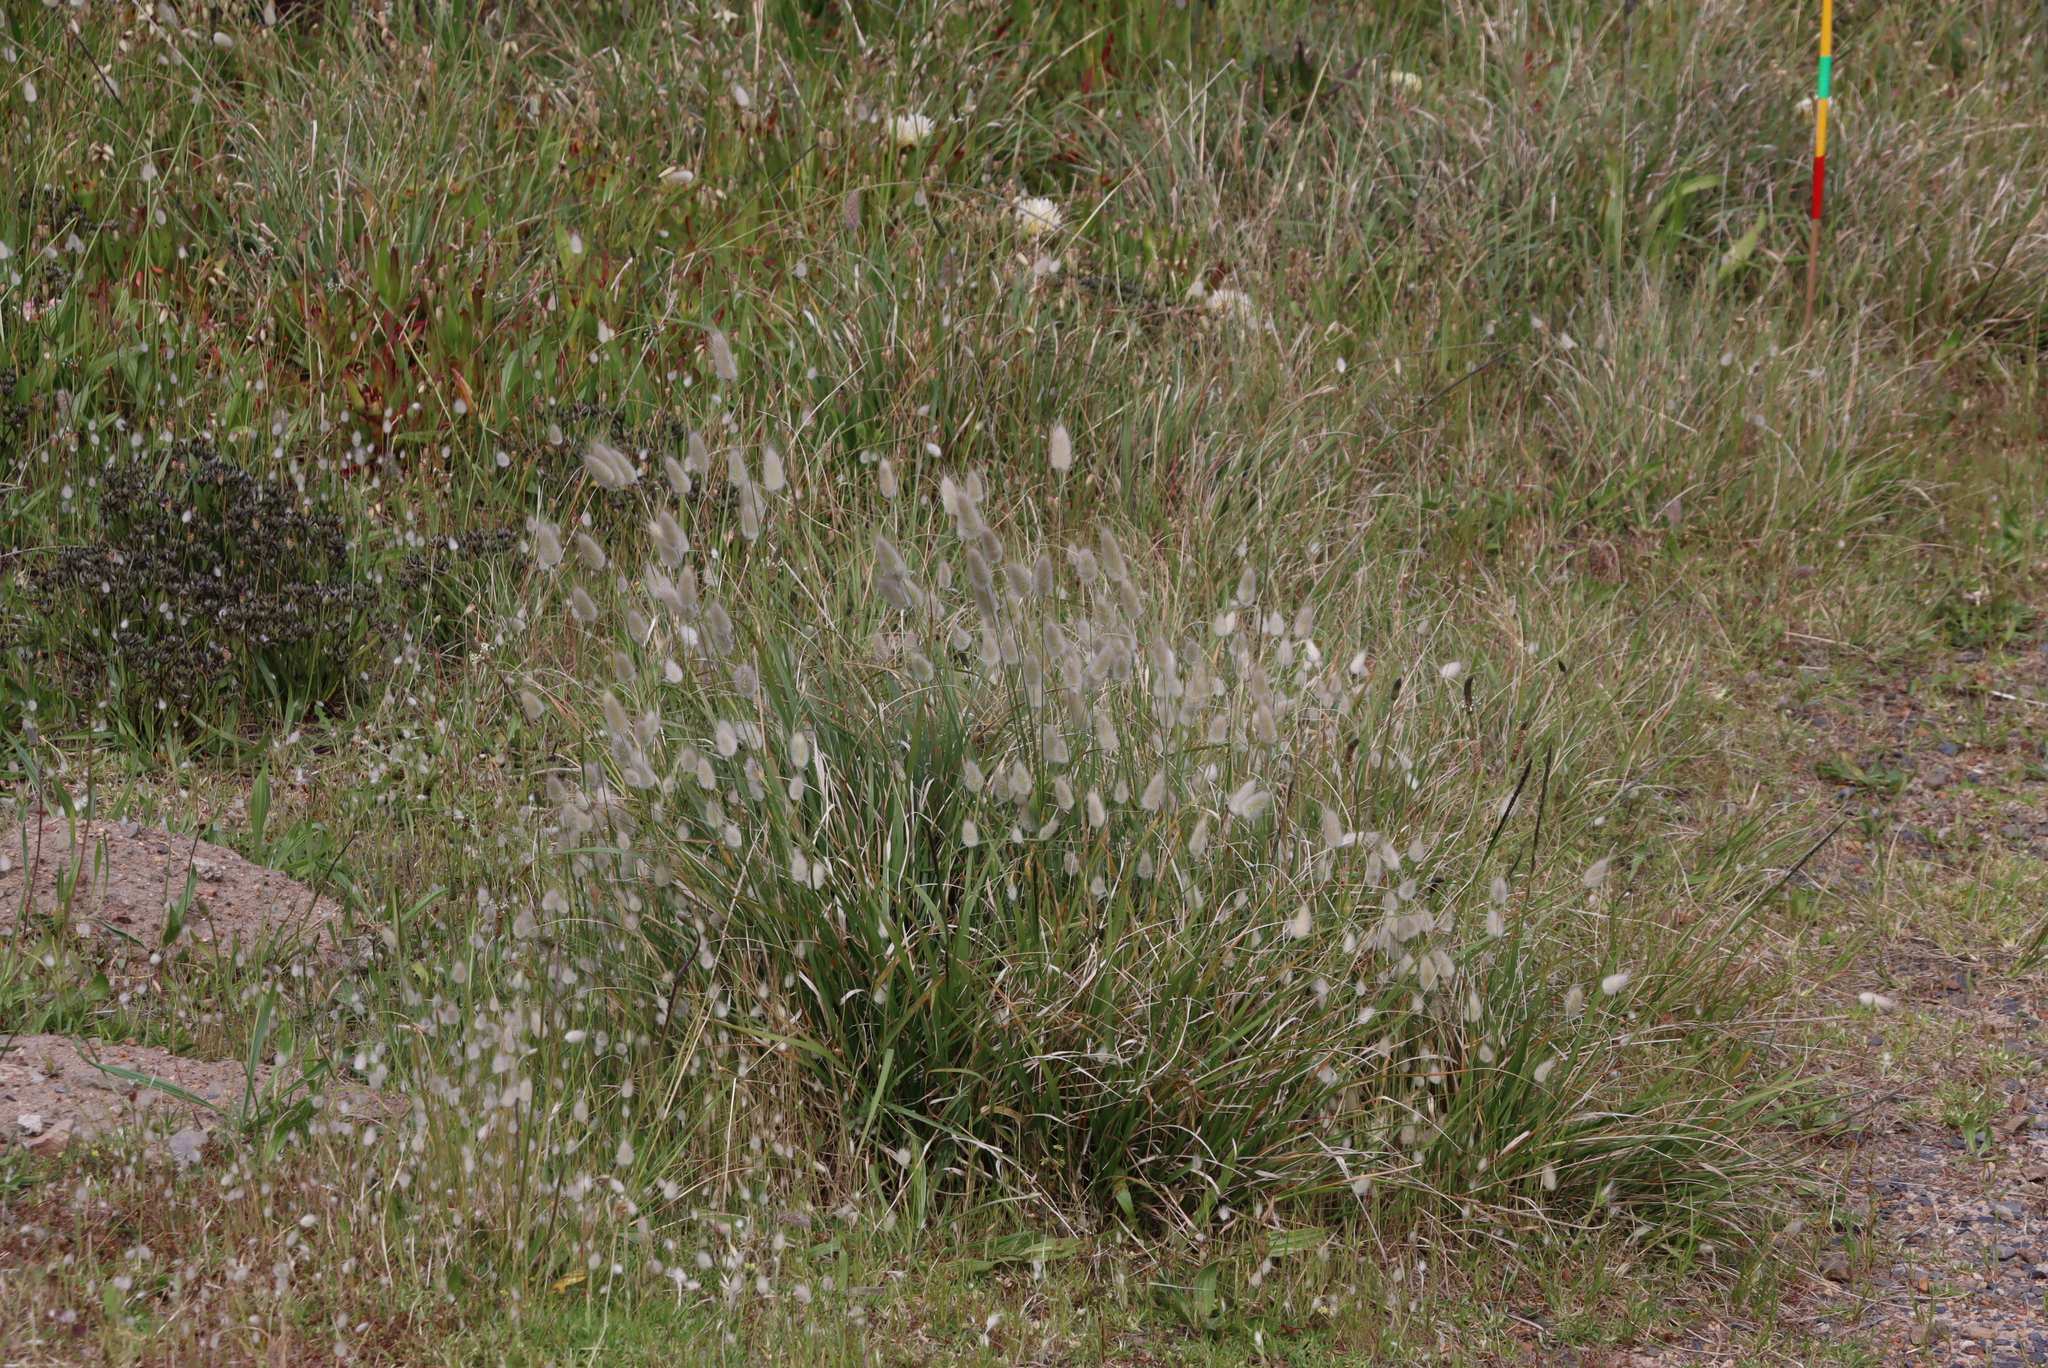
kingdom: Plantae
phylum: Tracheophyta
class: Liliopsida
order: Poales
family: Poaceae
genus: Lagurus
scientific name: Lagurus ovatus
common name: Hare's-tail
